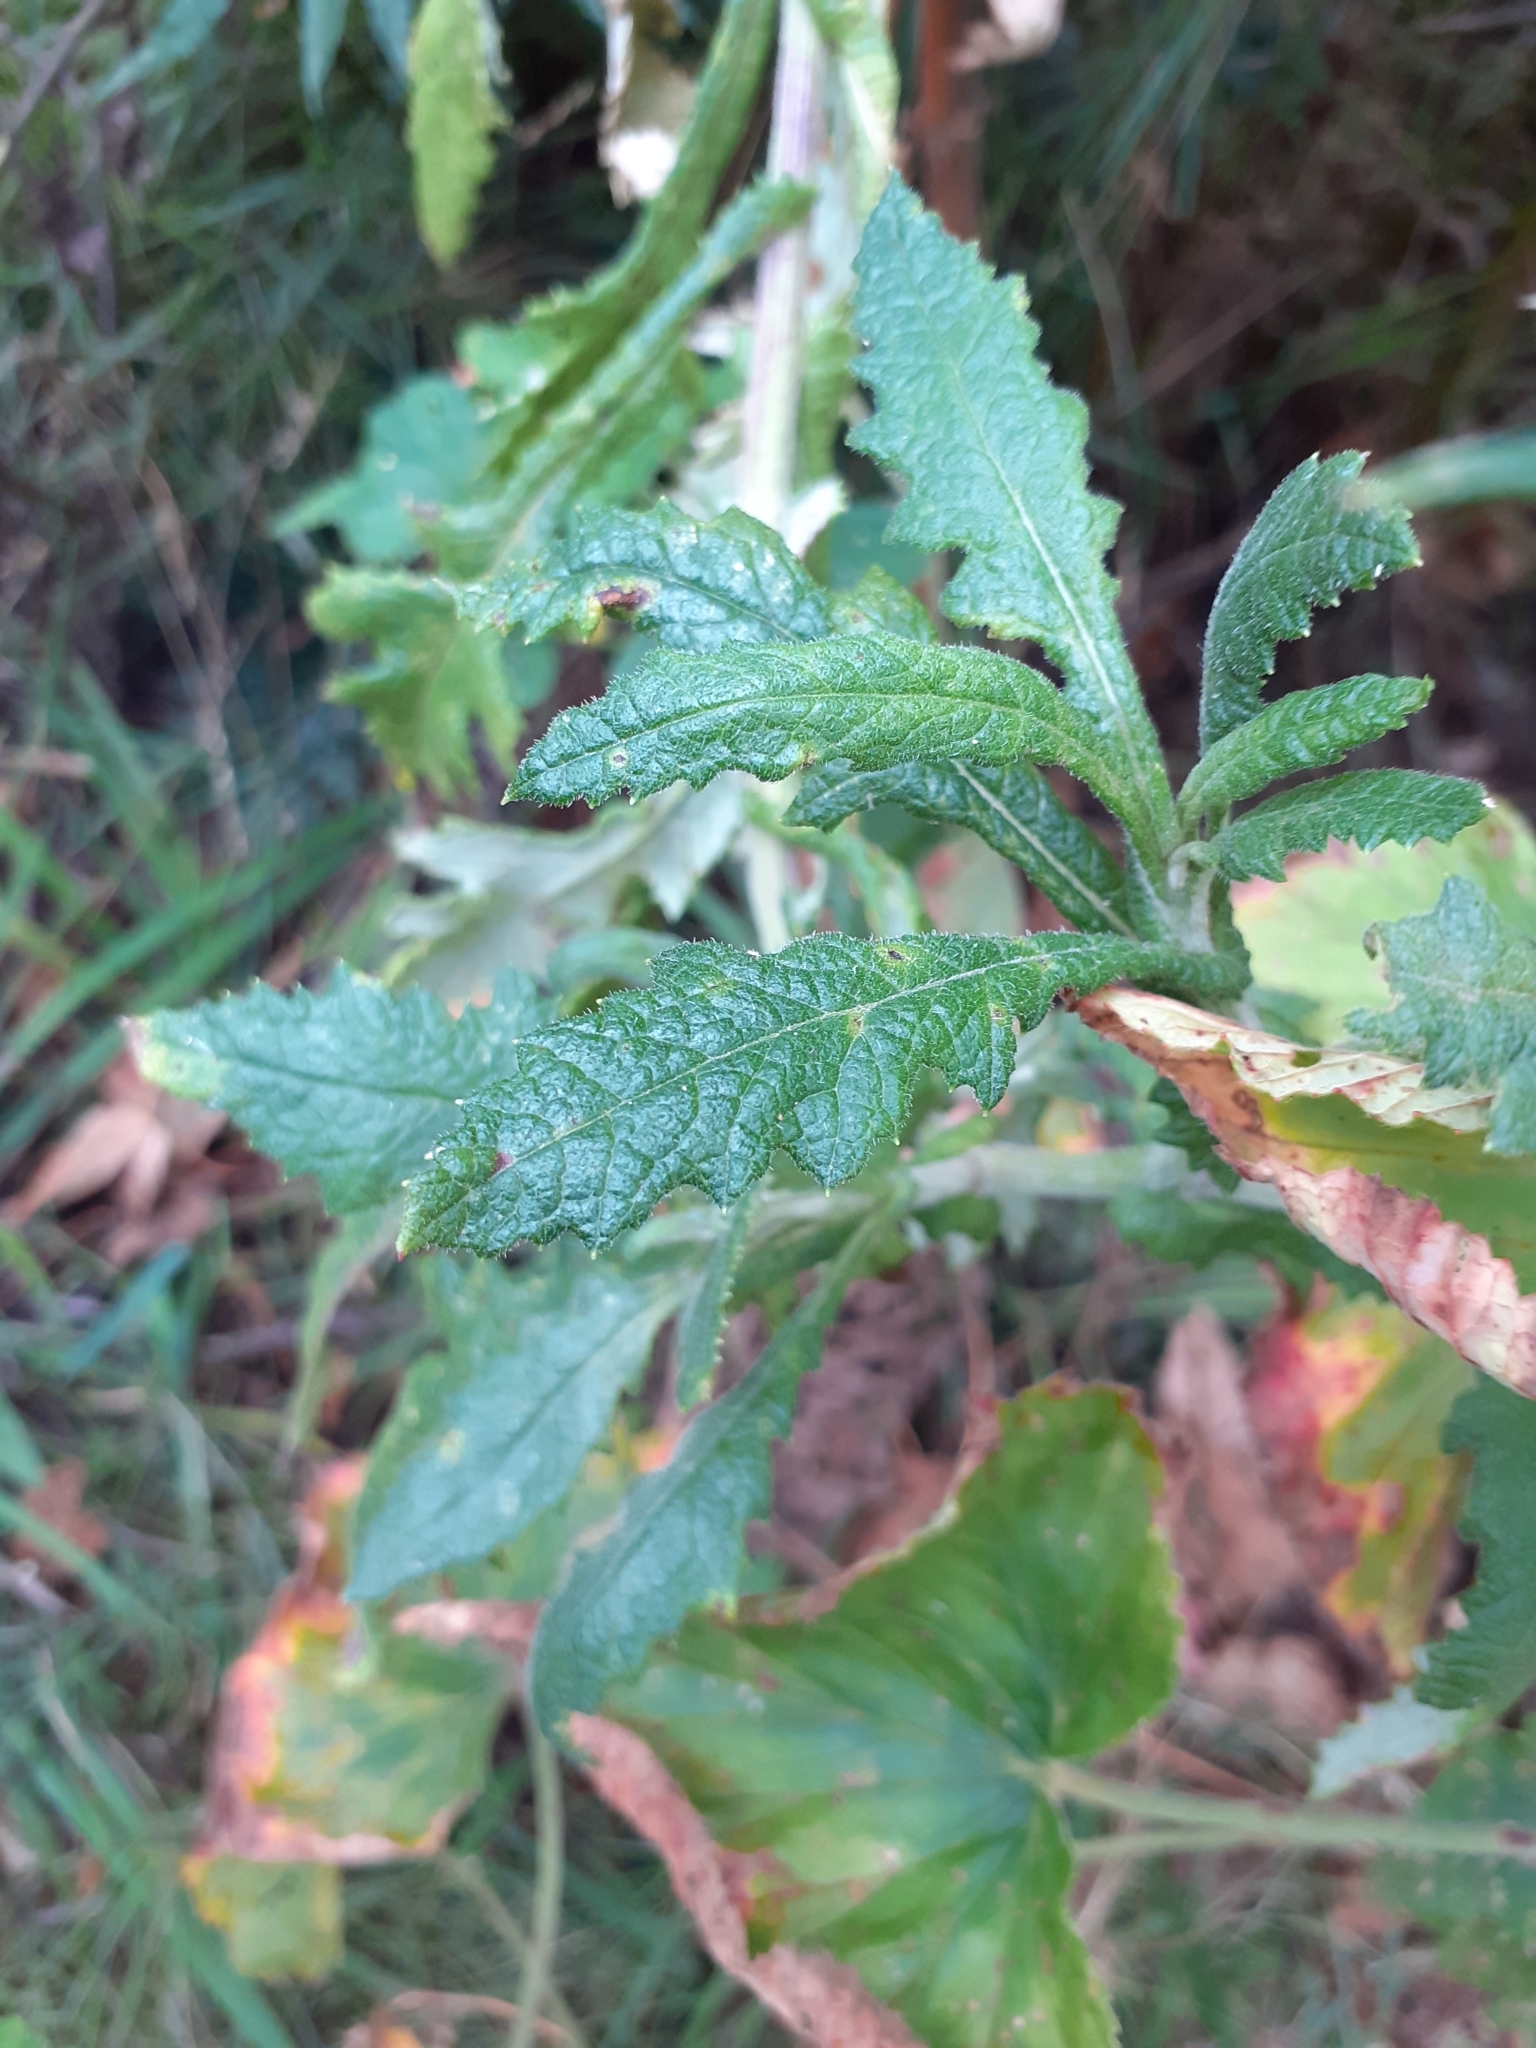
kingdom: Plantae
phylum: Tracheophyta
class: Magnoliopsida
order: Asterales
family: Asteraceae
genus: Senecio
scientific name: Senecio rigidus
